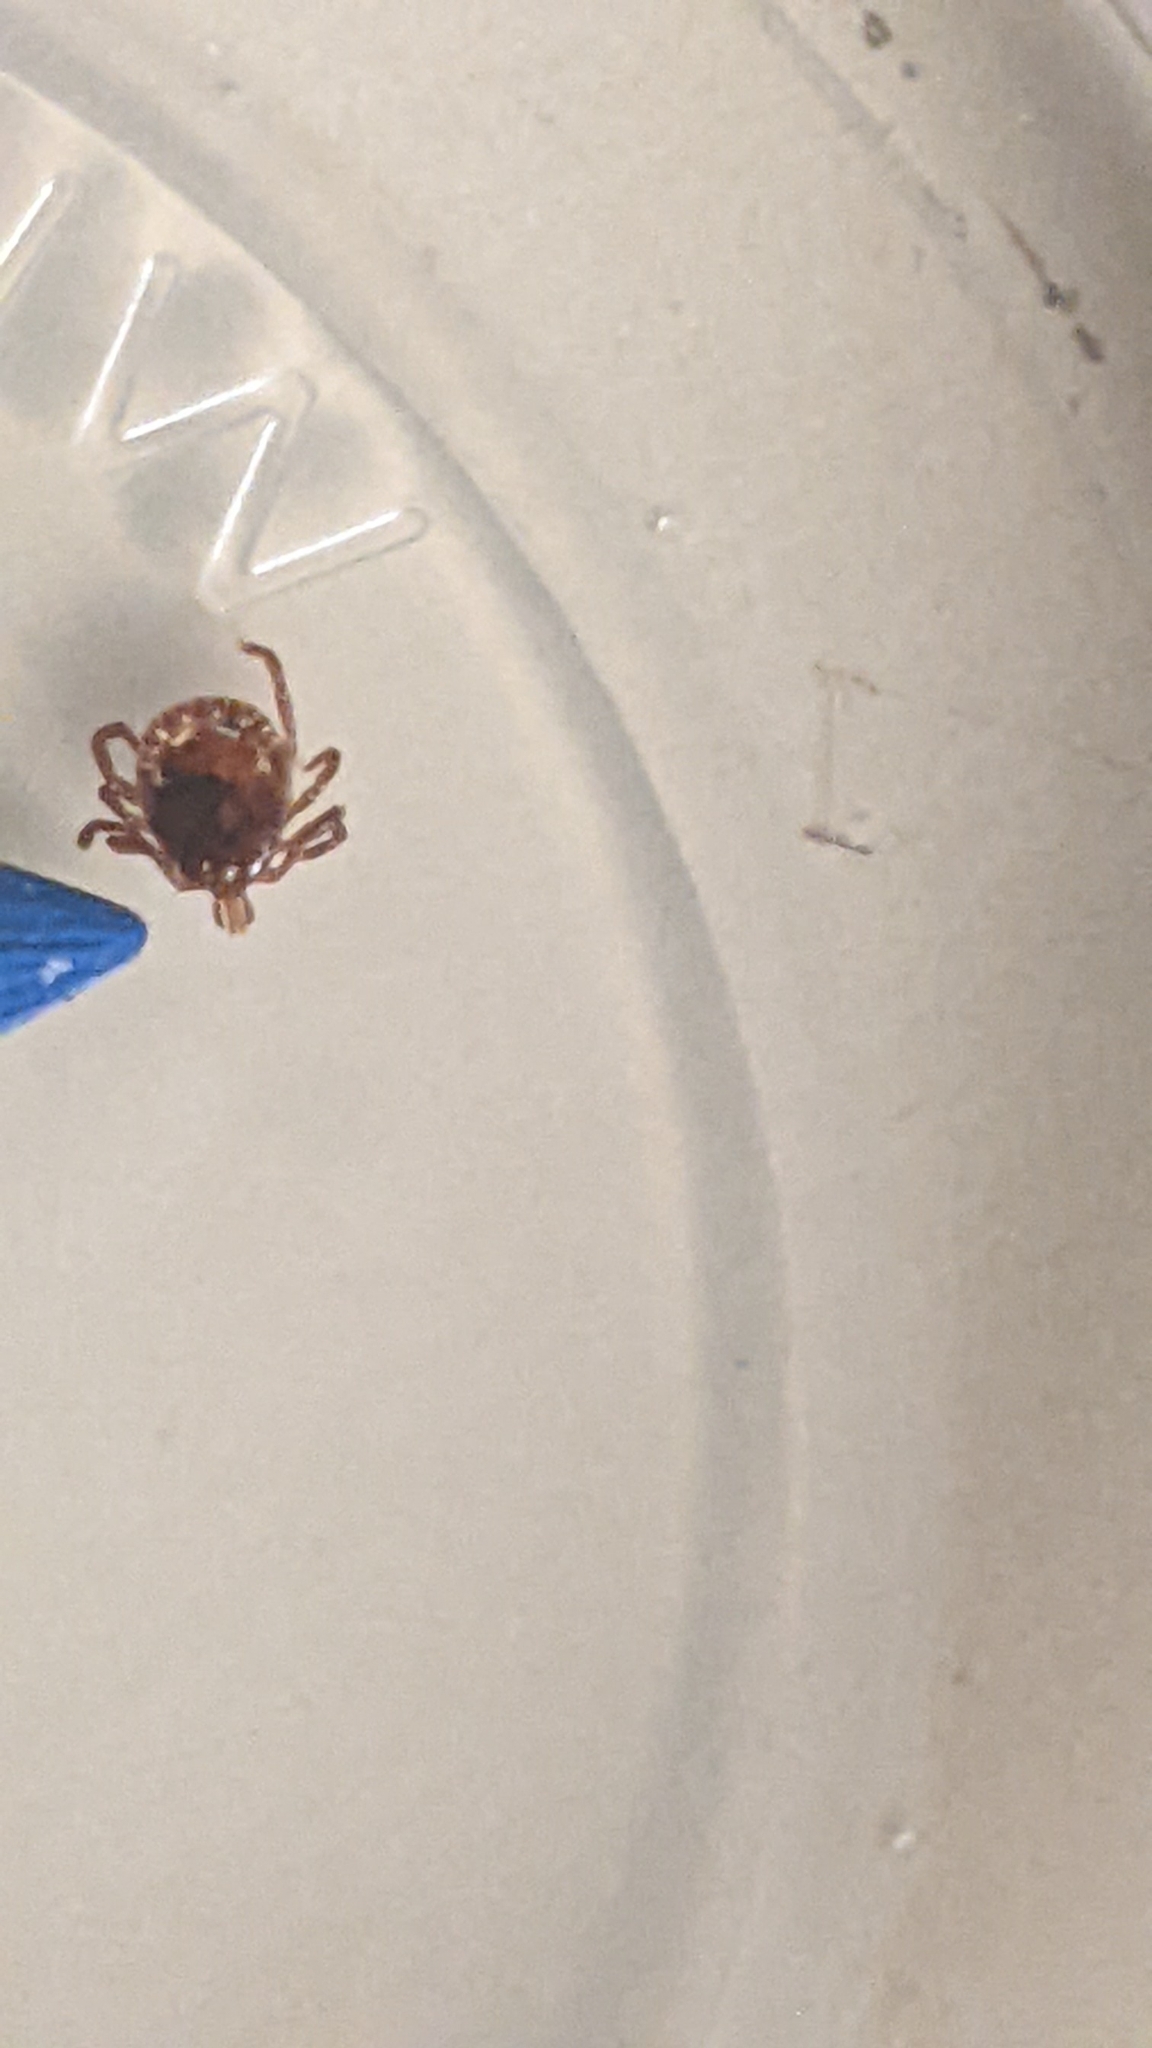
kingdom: Animalia
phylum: Arthropoda
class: Arachnida
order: Ixodida
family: Ixodidae
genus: Amblyomma
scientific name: Amblyomma americanum
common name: Lone star tick
